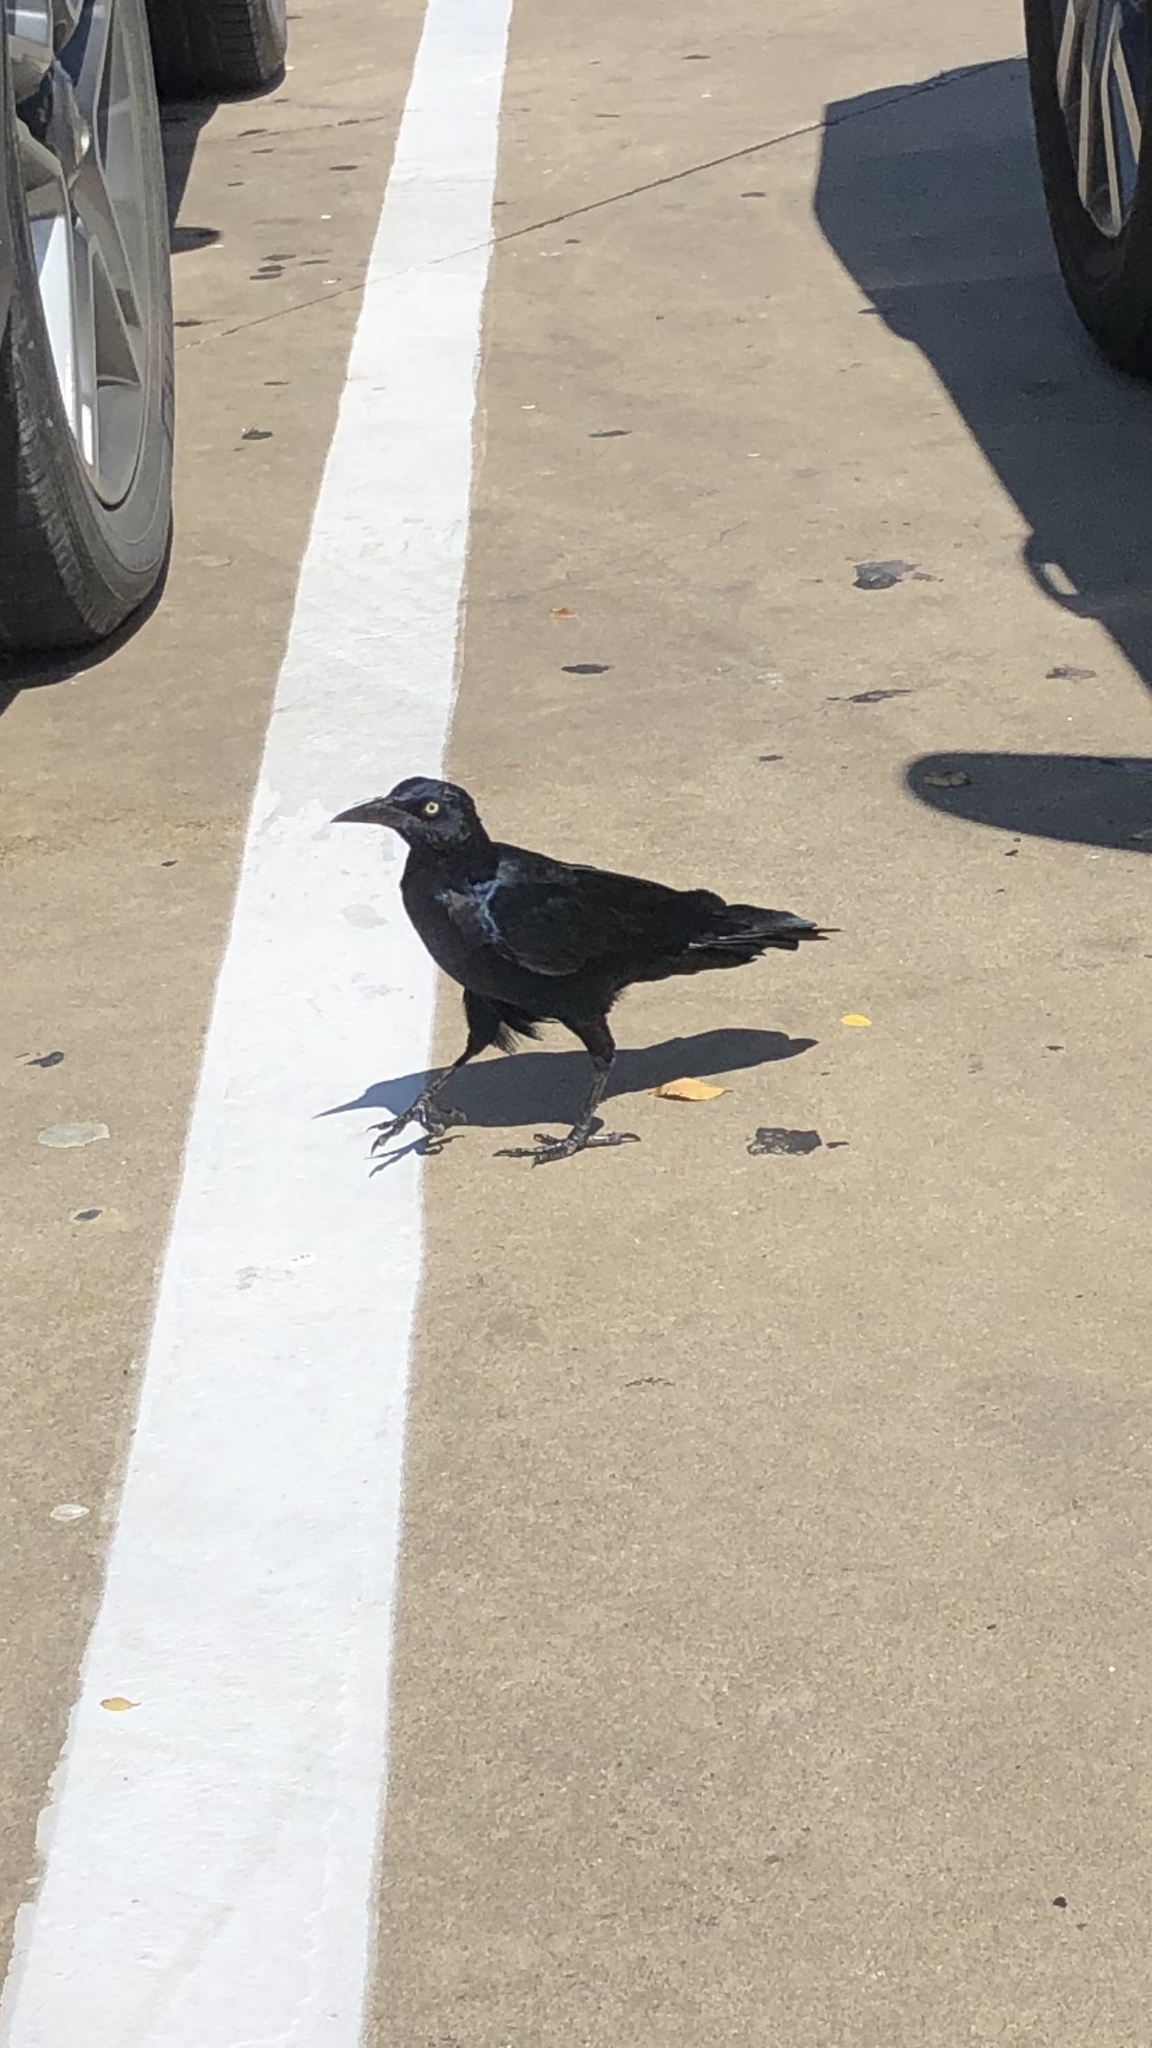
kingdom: Animalia
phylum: Chordata
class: Aves
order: Passeriformes
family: Icteridae
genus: Quiscalus
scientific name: Quiscalus mexicanus
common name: Great-tailed grackle
